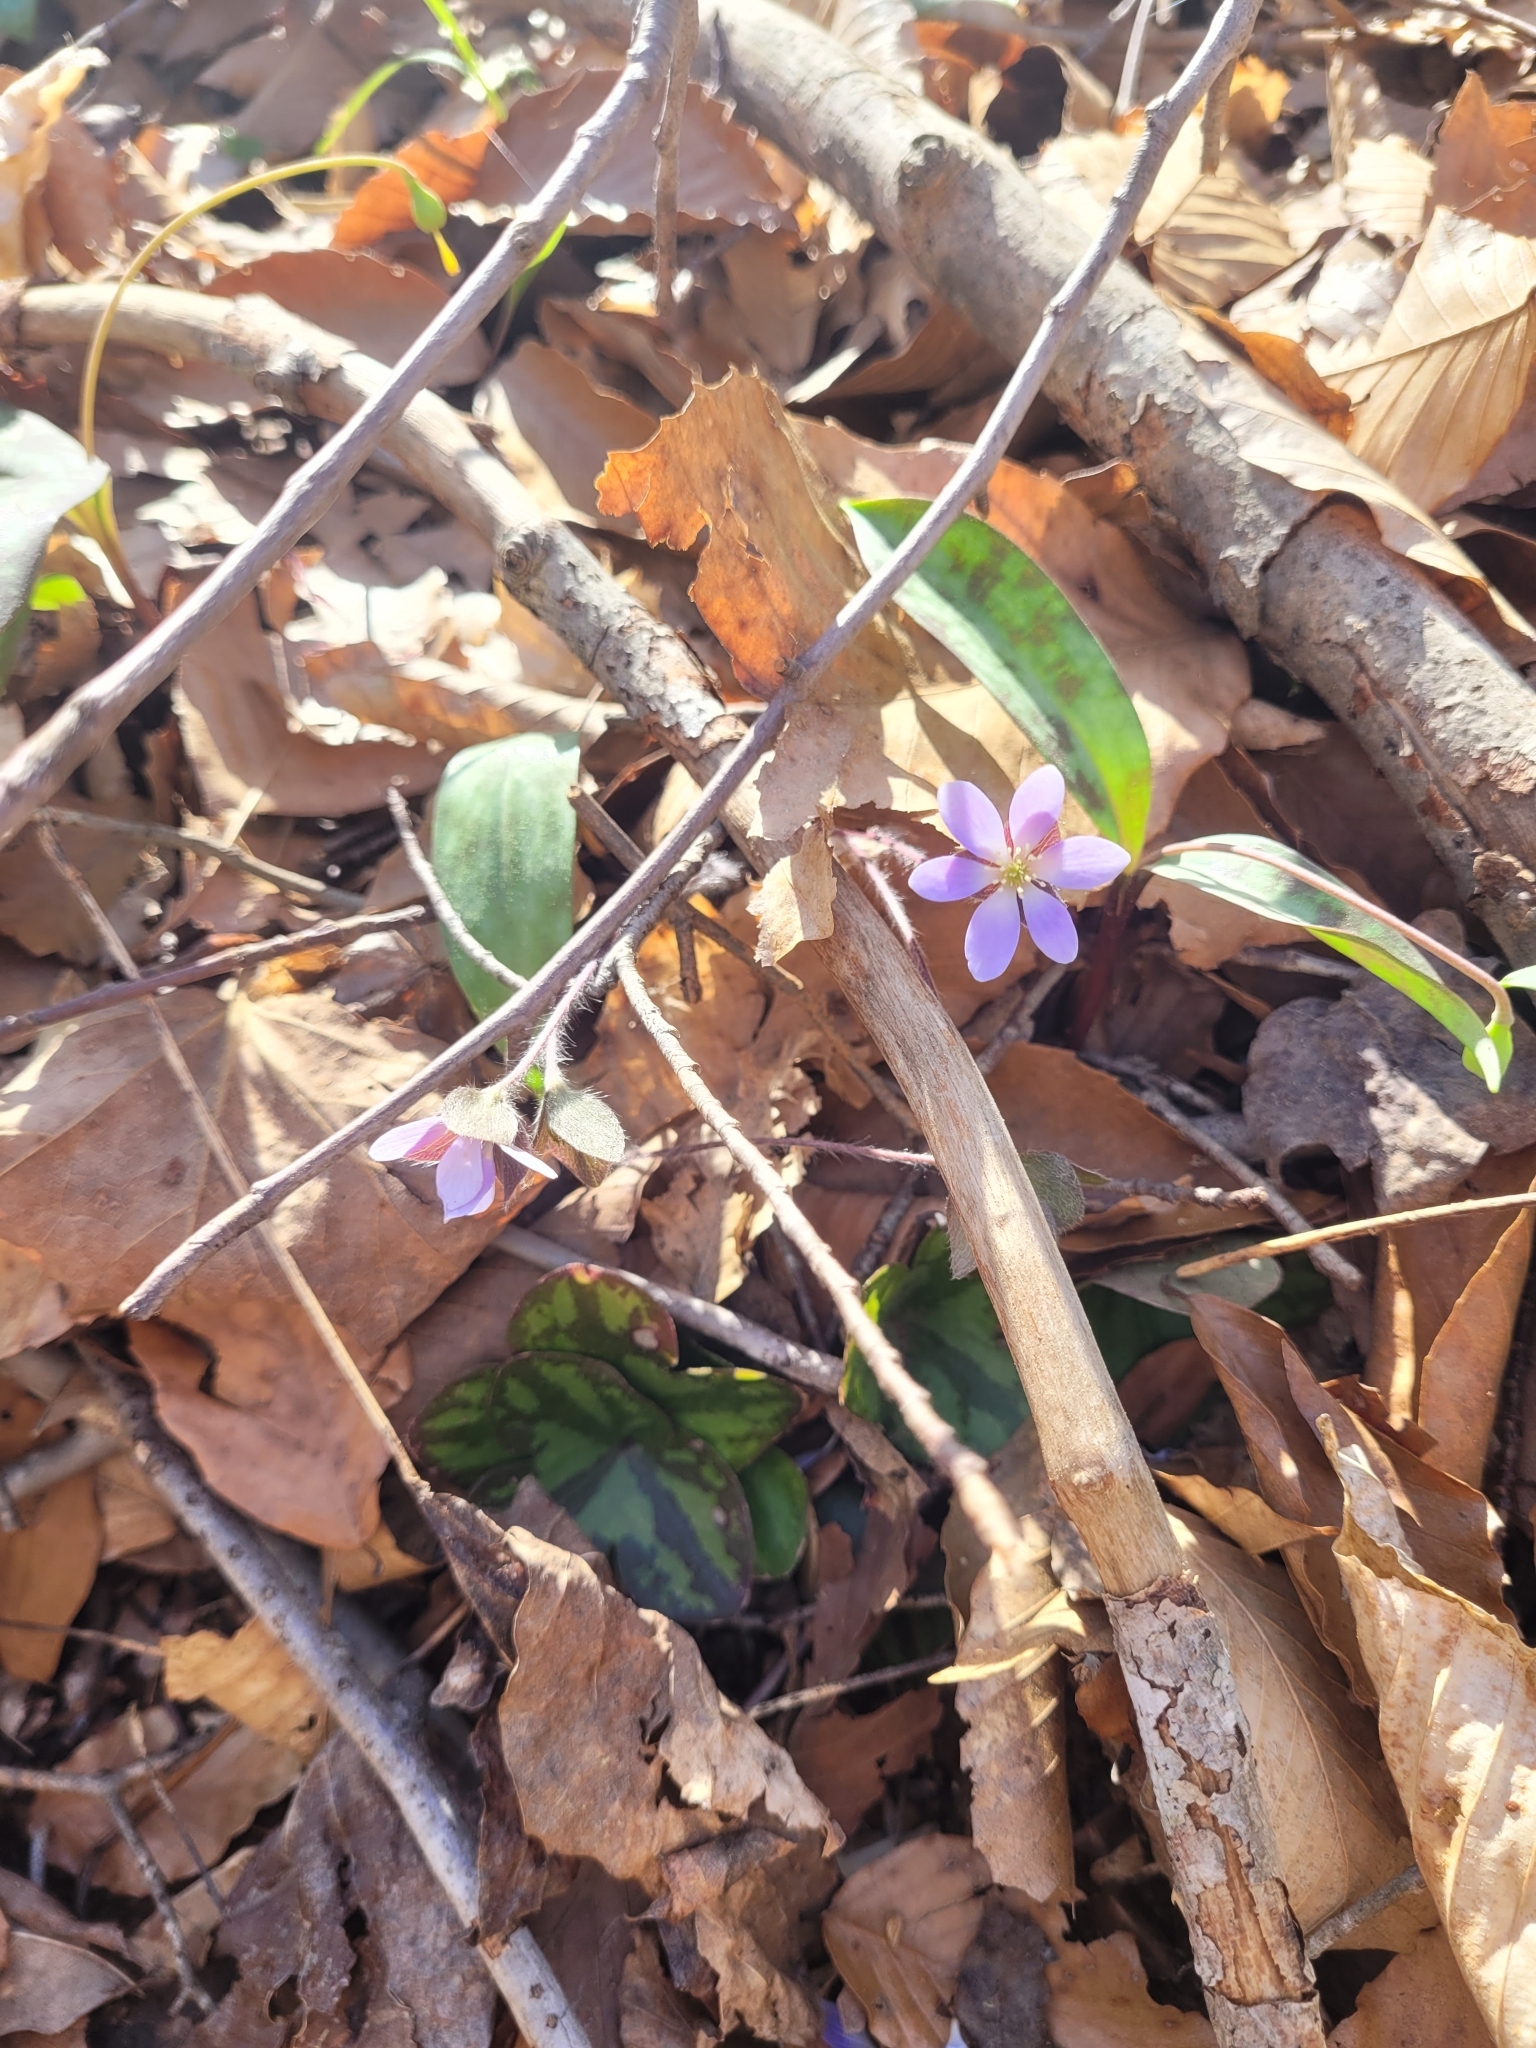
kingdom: Plantae
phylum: Tracheophyta
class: Magnoliopsida
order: Ranunculales
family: Ranunculaceae
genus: Hepatica
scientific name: Hepatica americana
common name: American hepatica
